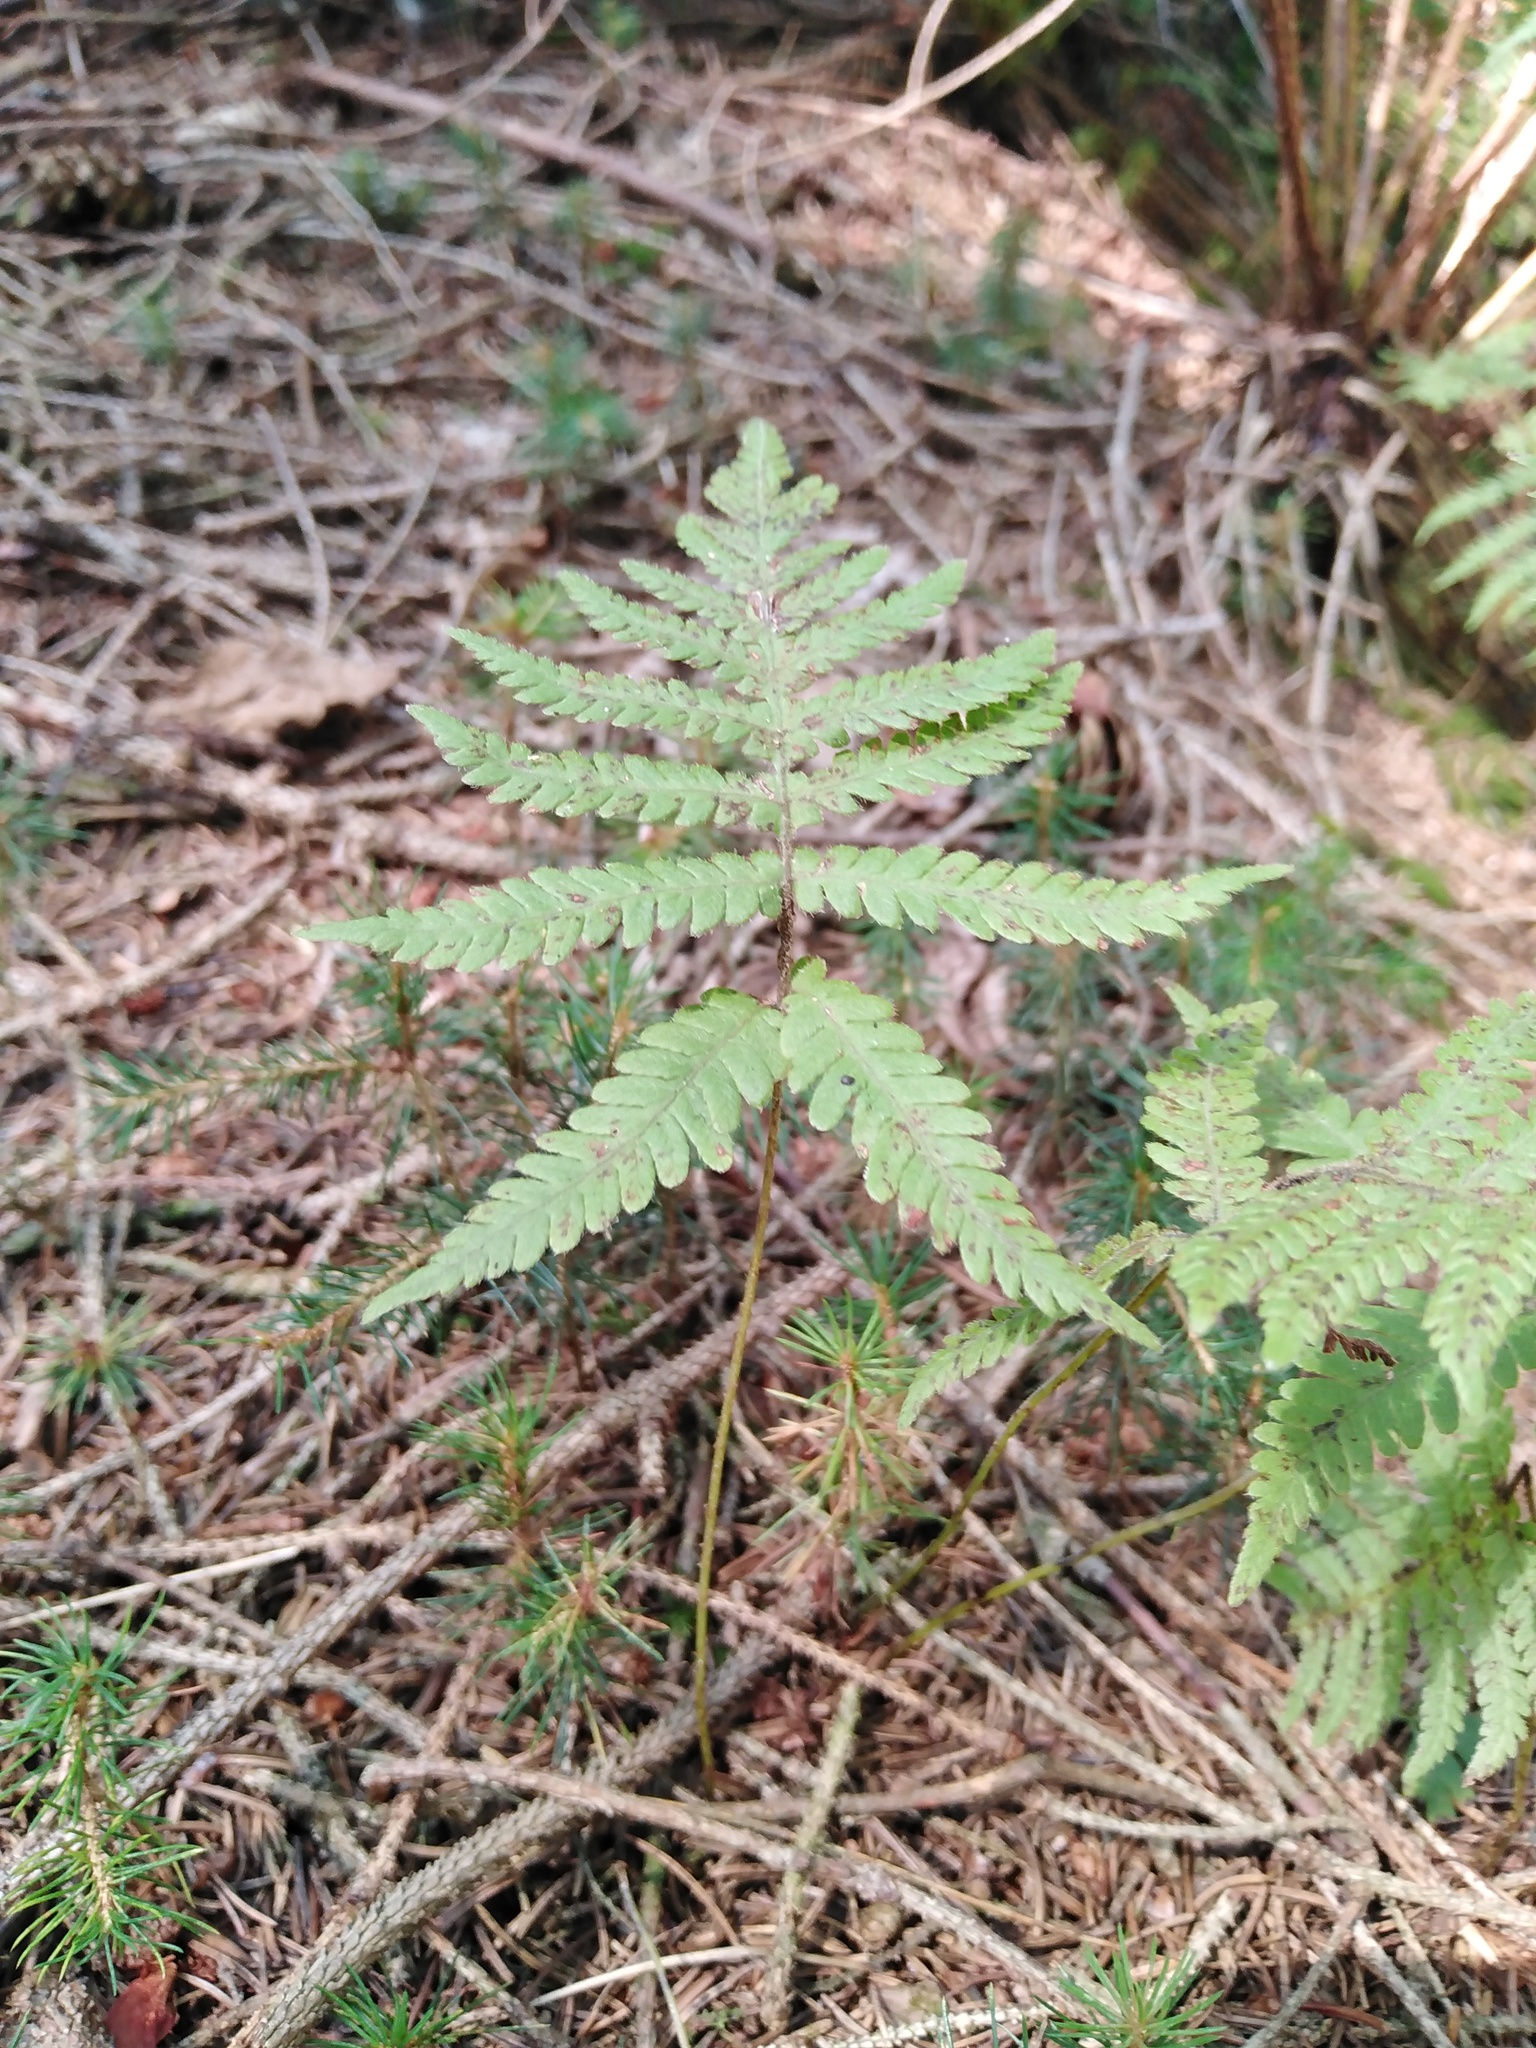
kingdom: Plantae
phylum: Tracheophyta
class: Polypodiopsida
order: Polypodiales
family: Thelypteridaceae
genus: Phegopteris
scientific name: Phegopteris connectilis
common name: Beech fern
